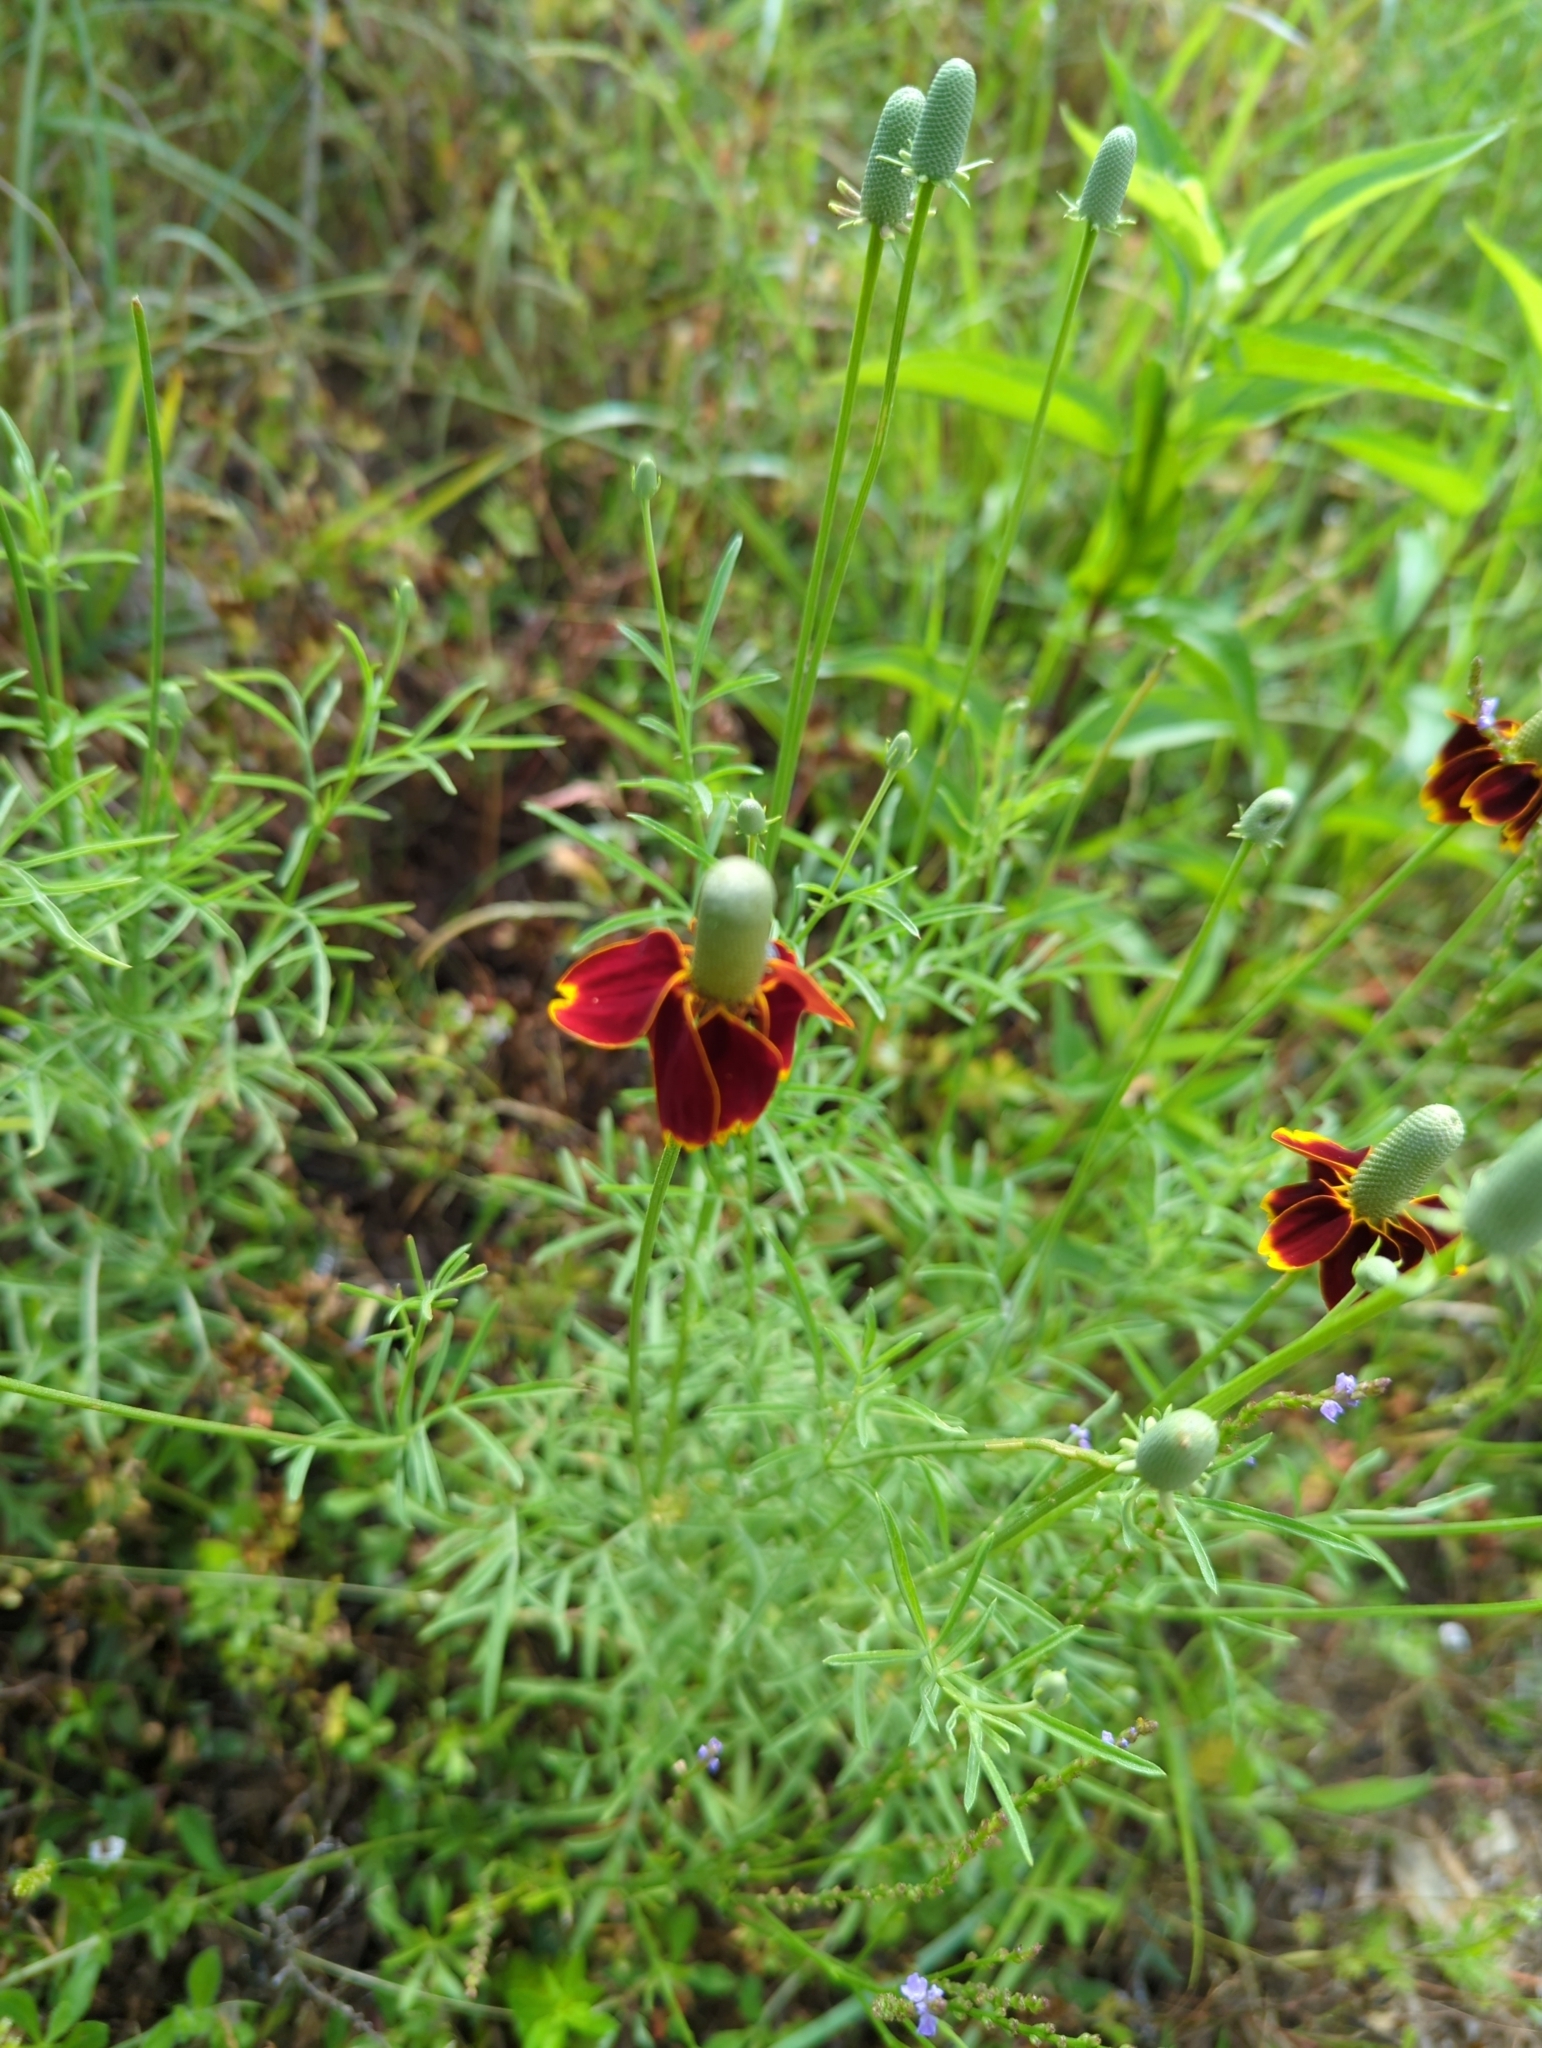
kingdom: Plantae
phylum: Tracheophyta
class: Magnoliopsida
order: Asterales
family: Asteraceae
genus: Ratibida
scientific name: Ratibida columnifera
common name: Prairie coneflower
